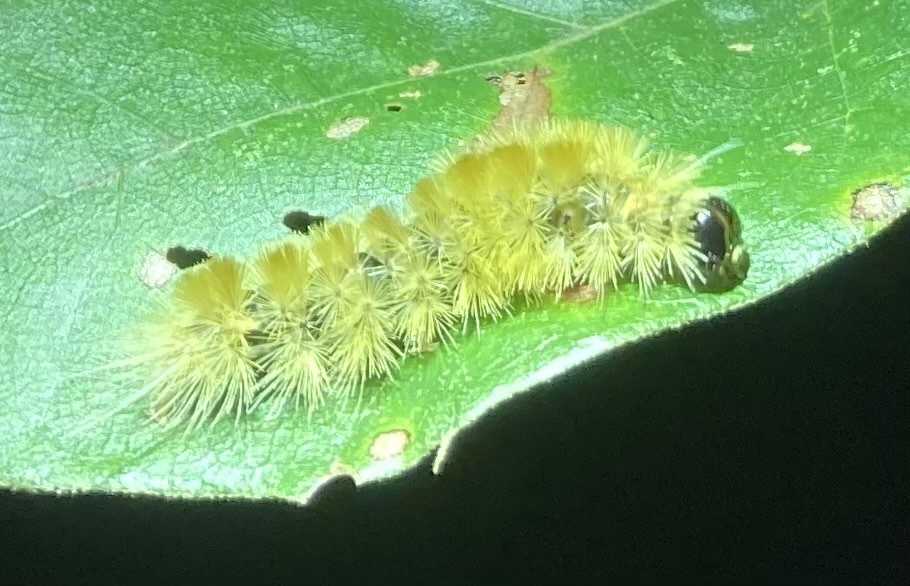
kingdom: Animalia
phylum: Arthropoda
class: Insecta
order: Lepidoptera
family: Erebidae
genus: Halysidota
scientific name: Halysidota tessellaris
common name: Banded tussock moth
